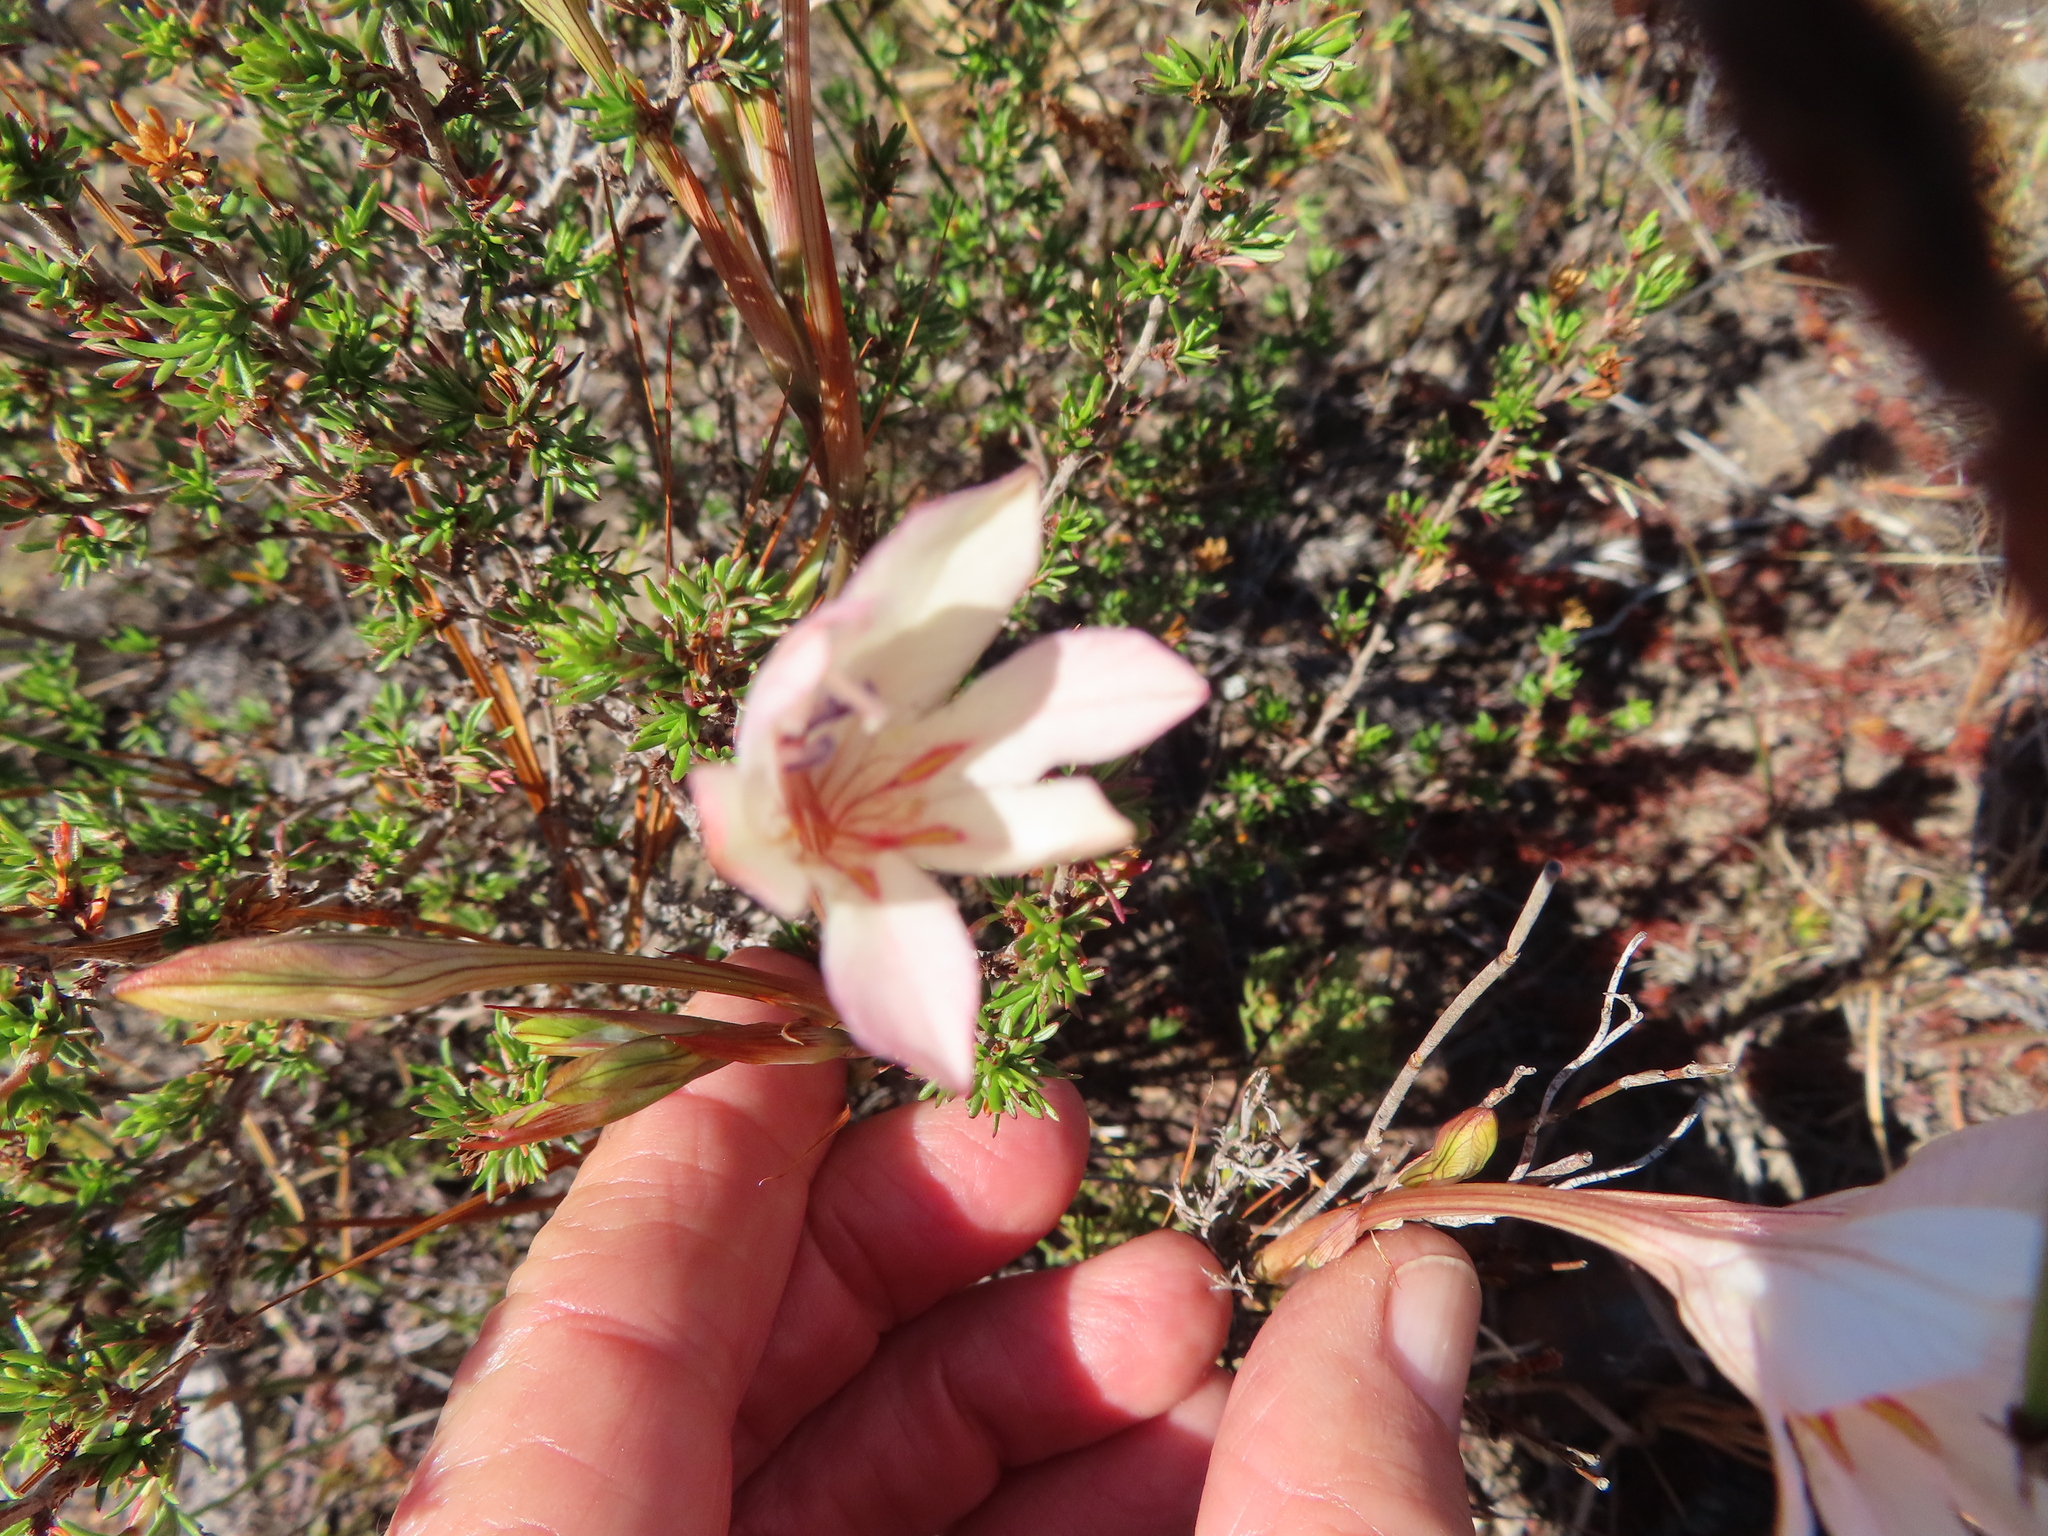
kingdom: Plantae
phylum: Tracheophyta
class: Liliopsida
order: Asparagales
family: Iridaceae
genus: Tritonia
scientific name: Tritonia flabellifolia
